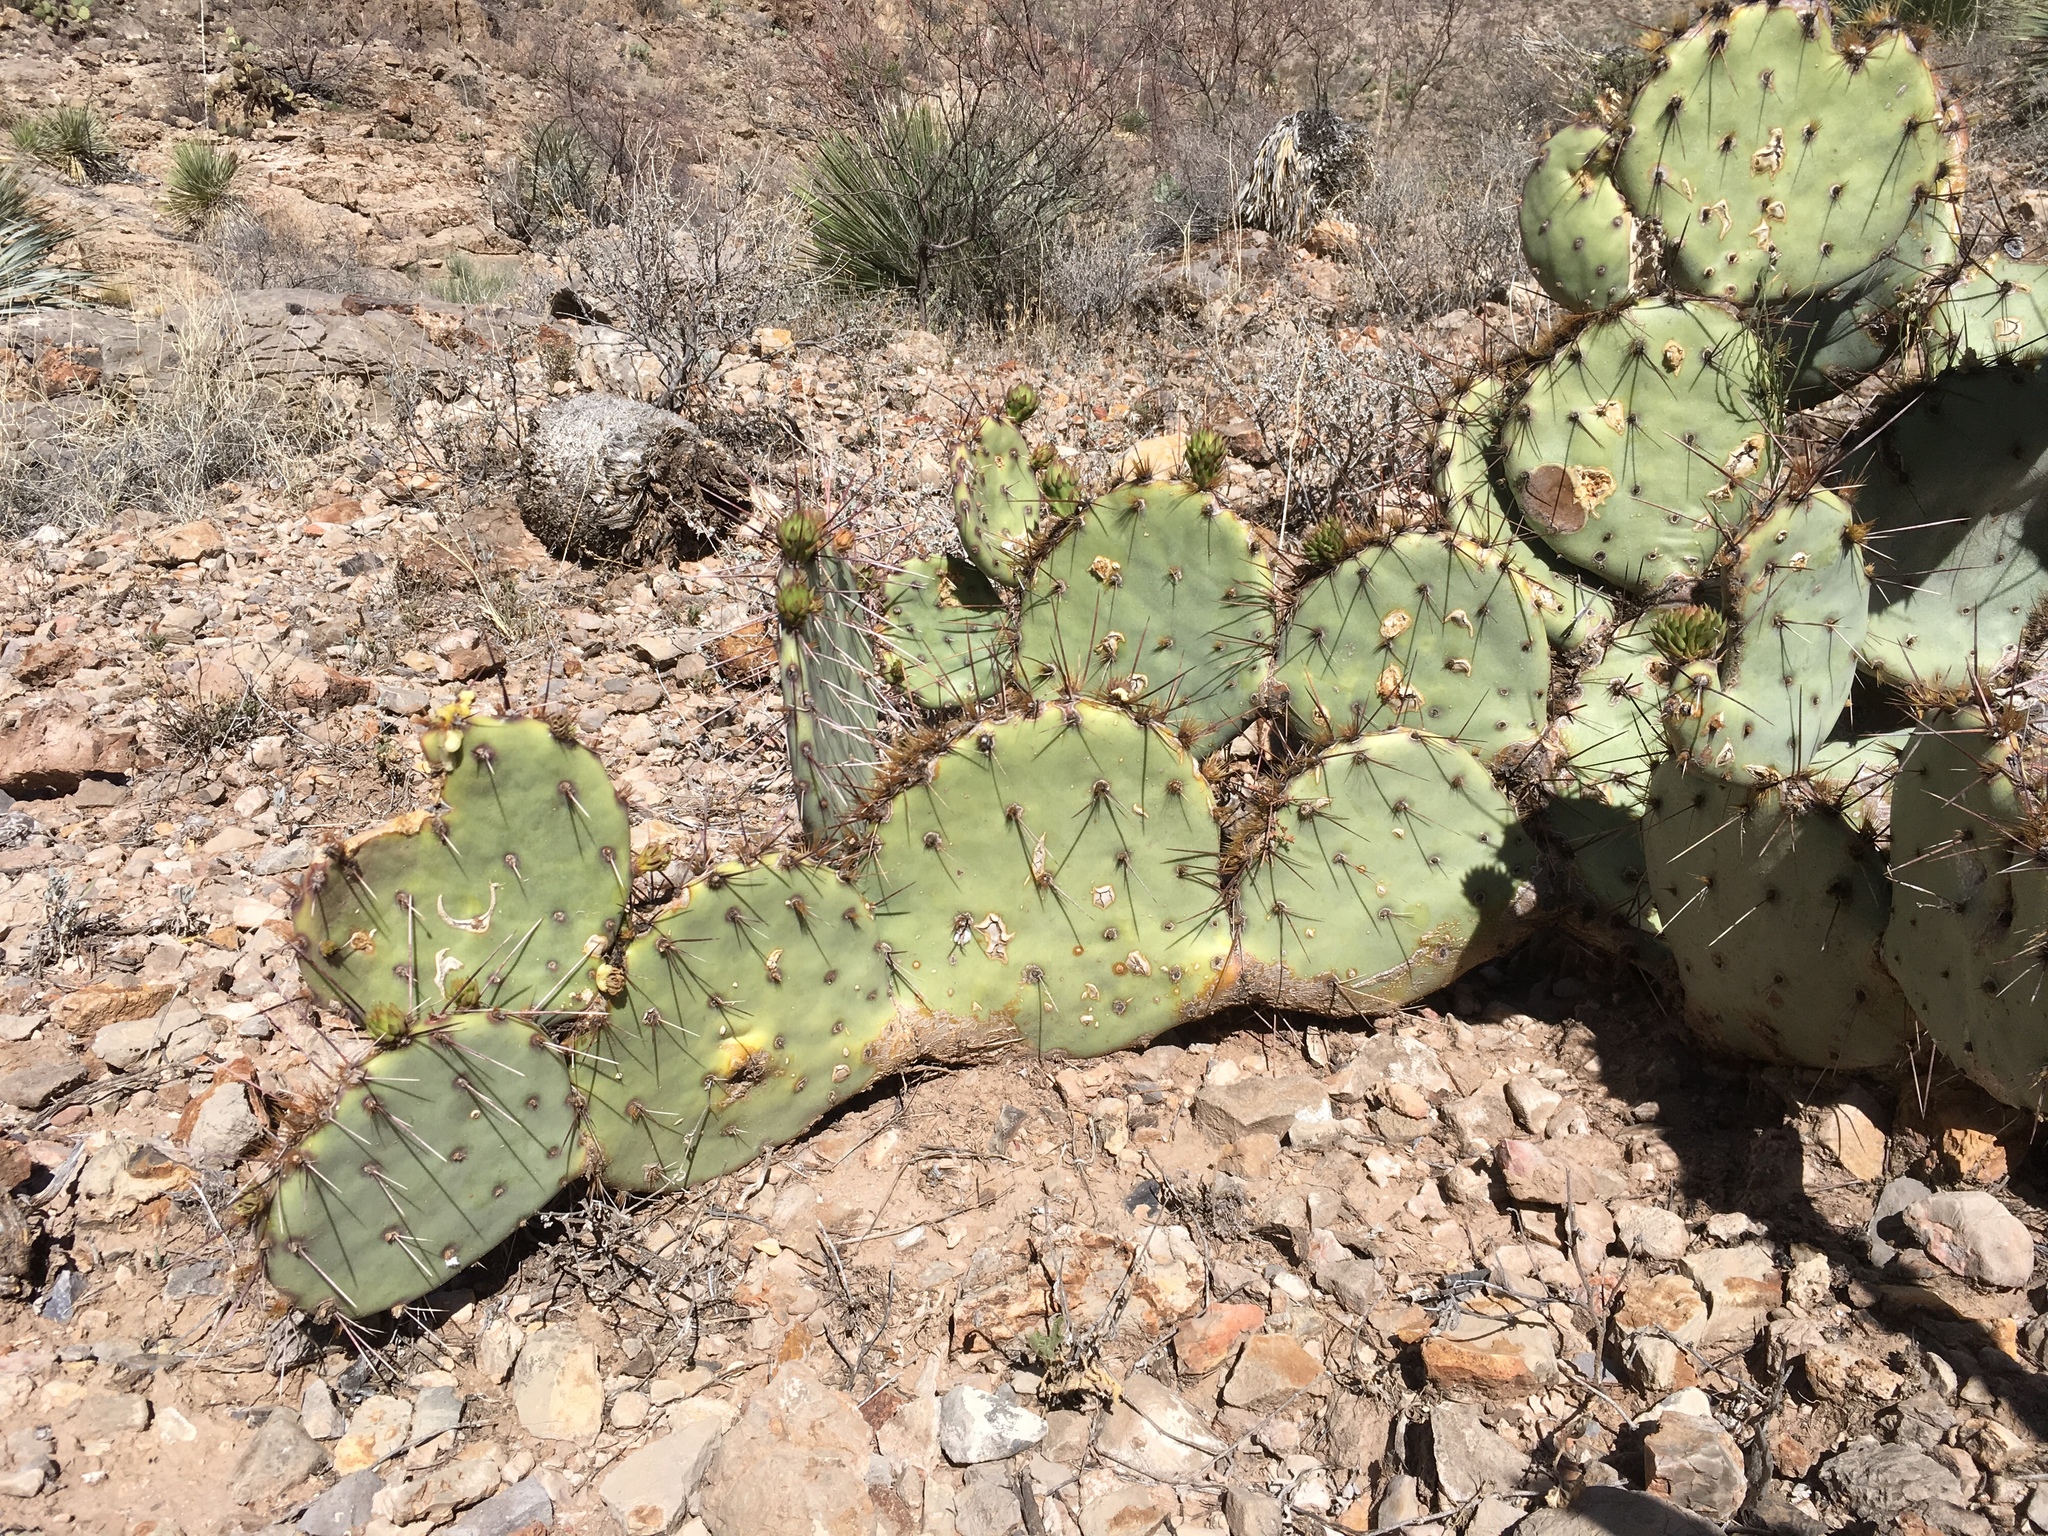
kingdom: Plantae
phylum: Tracheophyta
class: Magnoliopsida
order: Caryophyllales
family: Cactaceae
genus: Opuntia
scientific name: Opuntia phaeacantha
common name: New mexico prickly-pear
